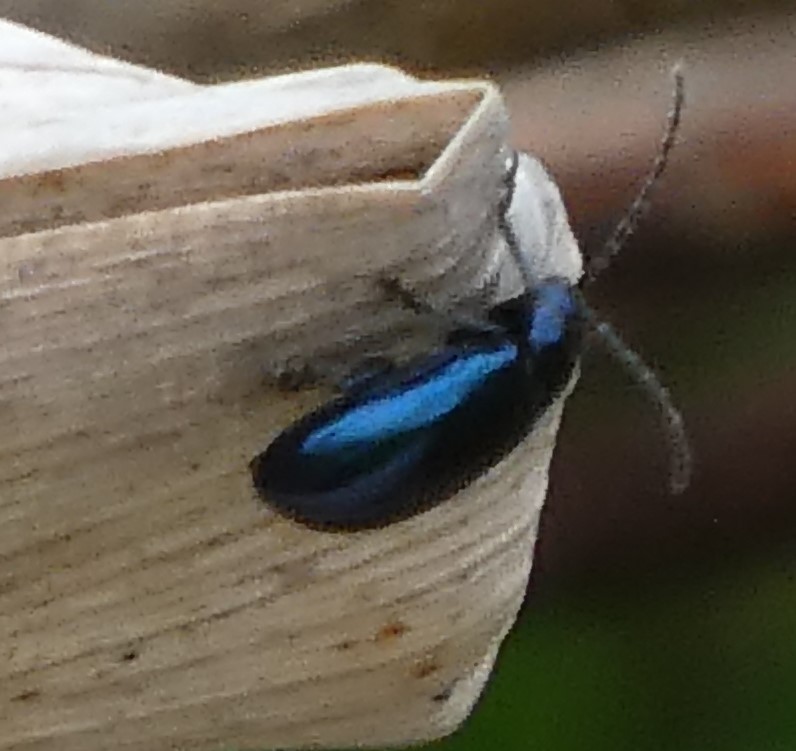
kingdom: Animalia
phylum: Arthropoda
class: Insecta
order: Coleoptera
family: Chrysomelidae
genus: Agelastica
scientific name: Agelastica alni
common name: Alder leaf beetle
